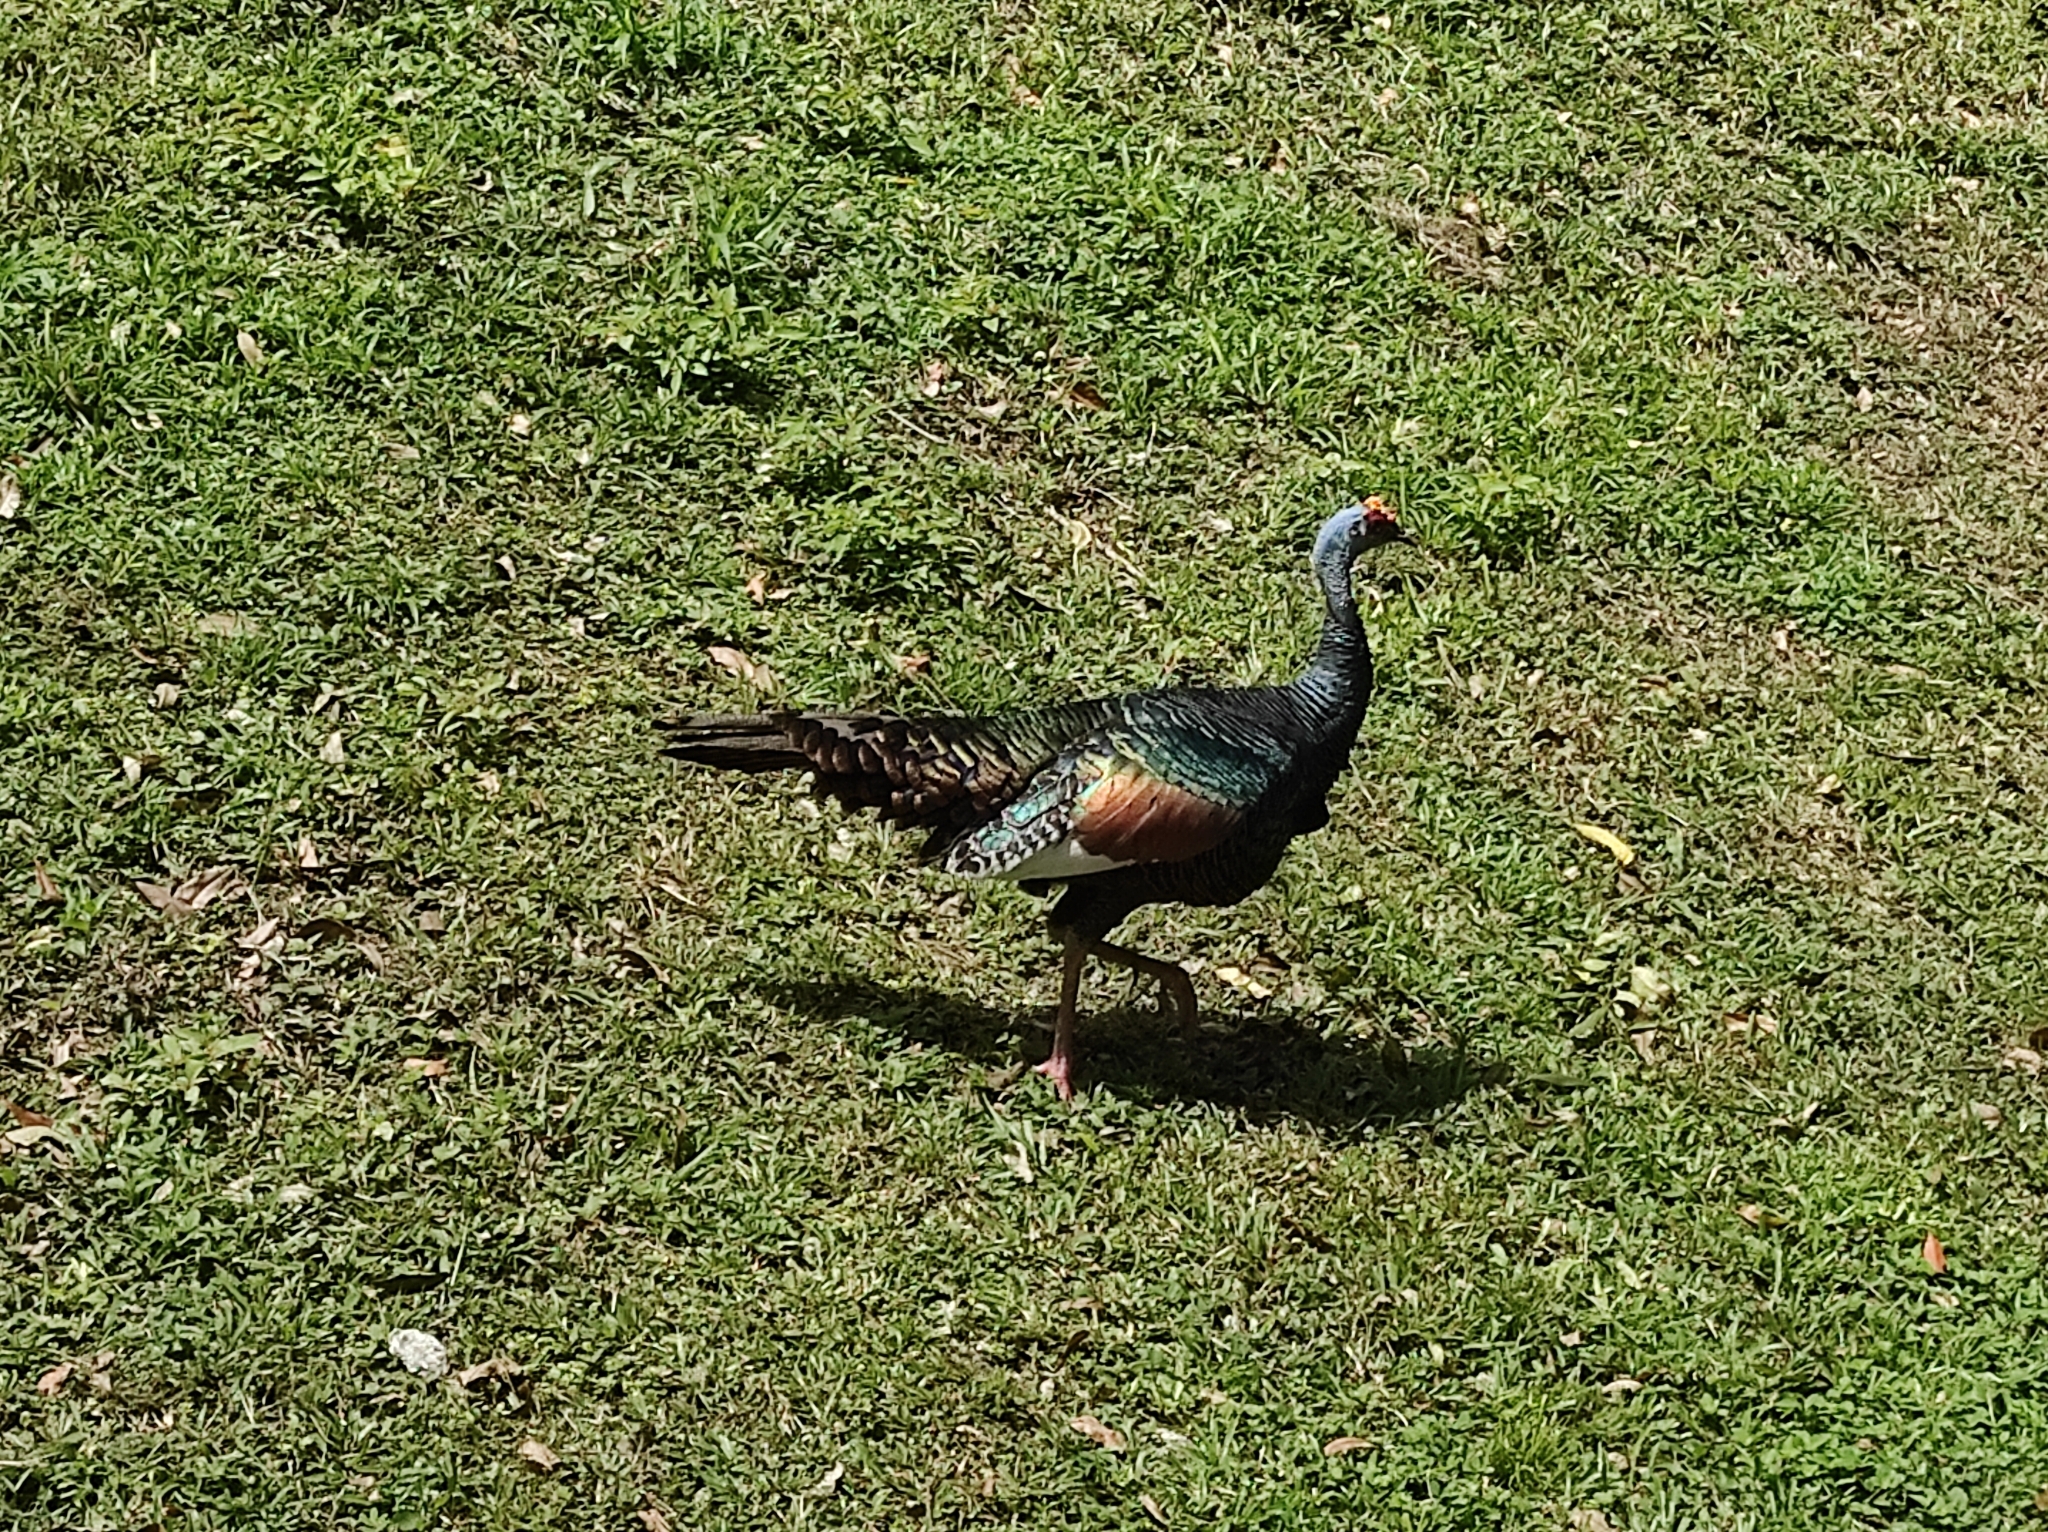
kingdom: Animalia
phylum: Chordata
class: Aves
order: Galliformes
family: Phasianidae
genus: Meleagris
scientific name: Meleagris ocellata
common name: Ocellated turkey
